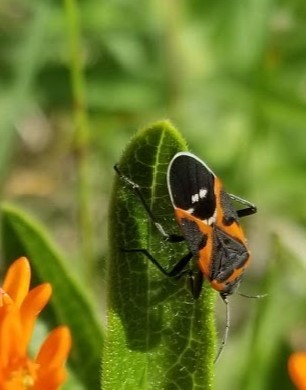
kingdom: Animalia
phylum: Arthropoda
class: Insecta
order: Hemiptera
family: Lygaeidae
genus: Lygaeus
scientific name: Lygaeus kalmii
